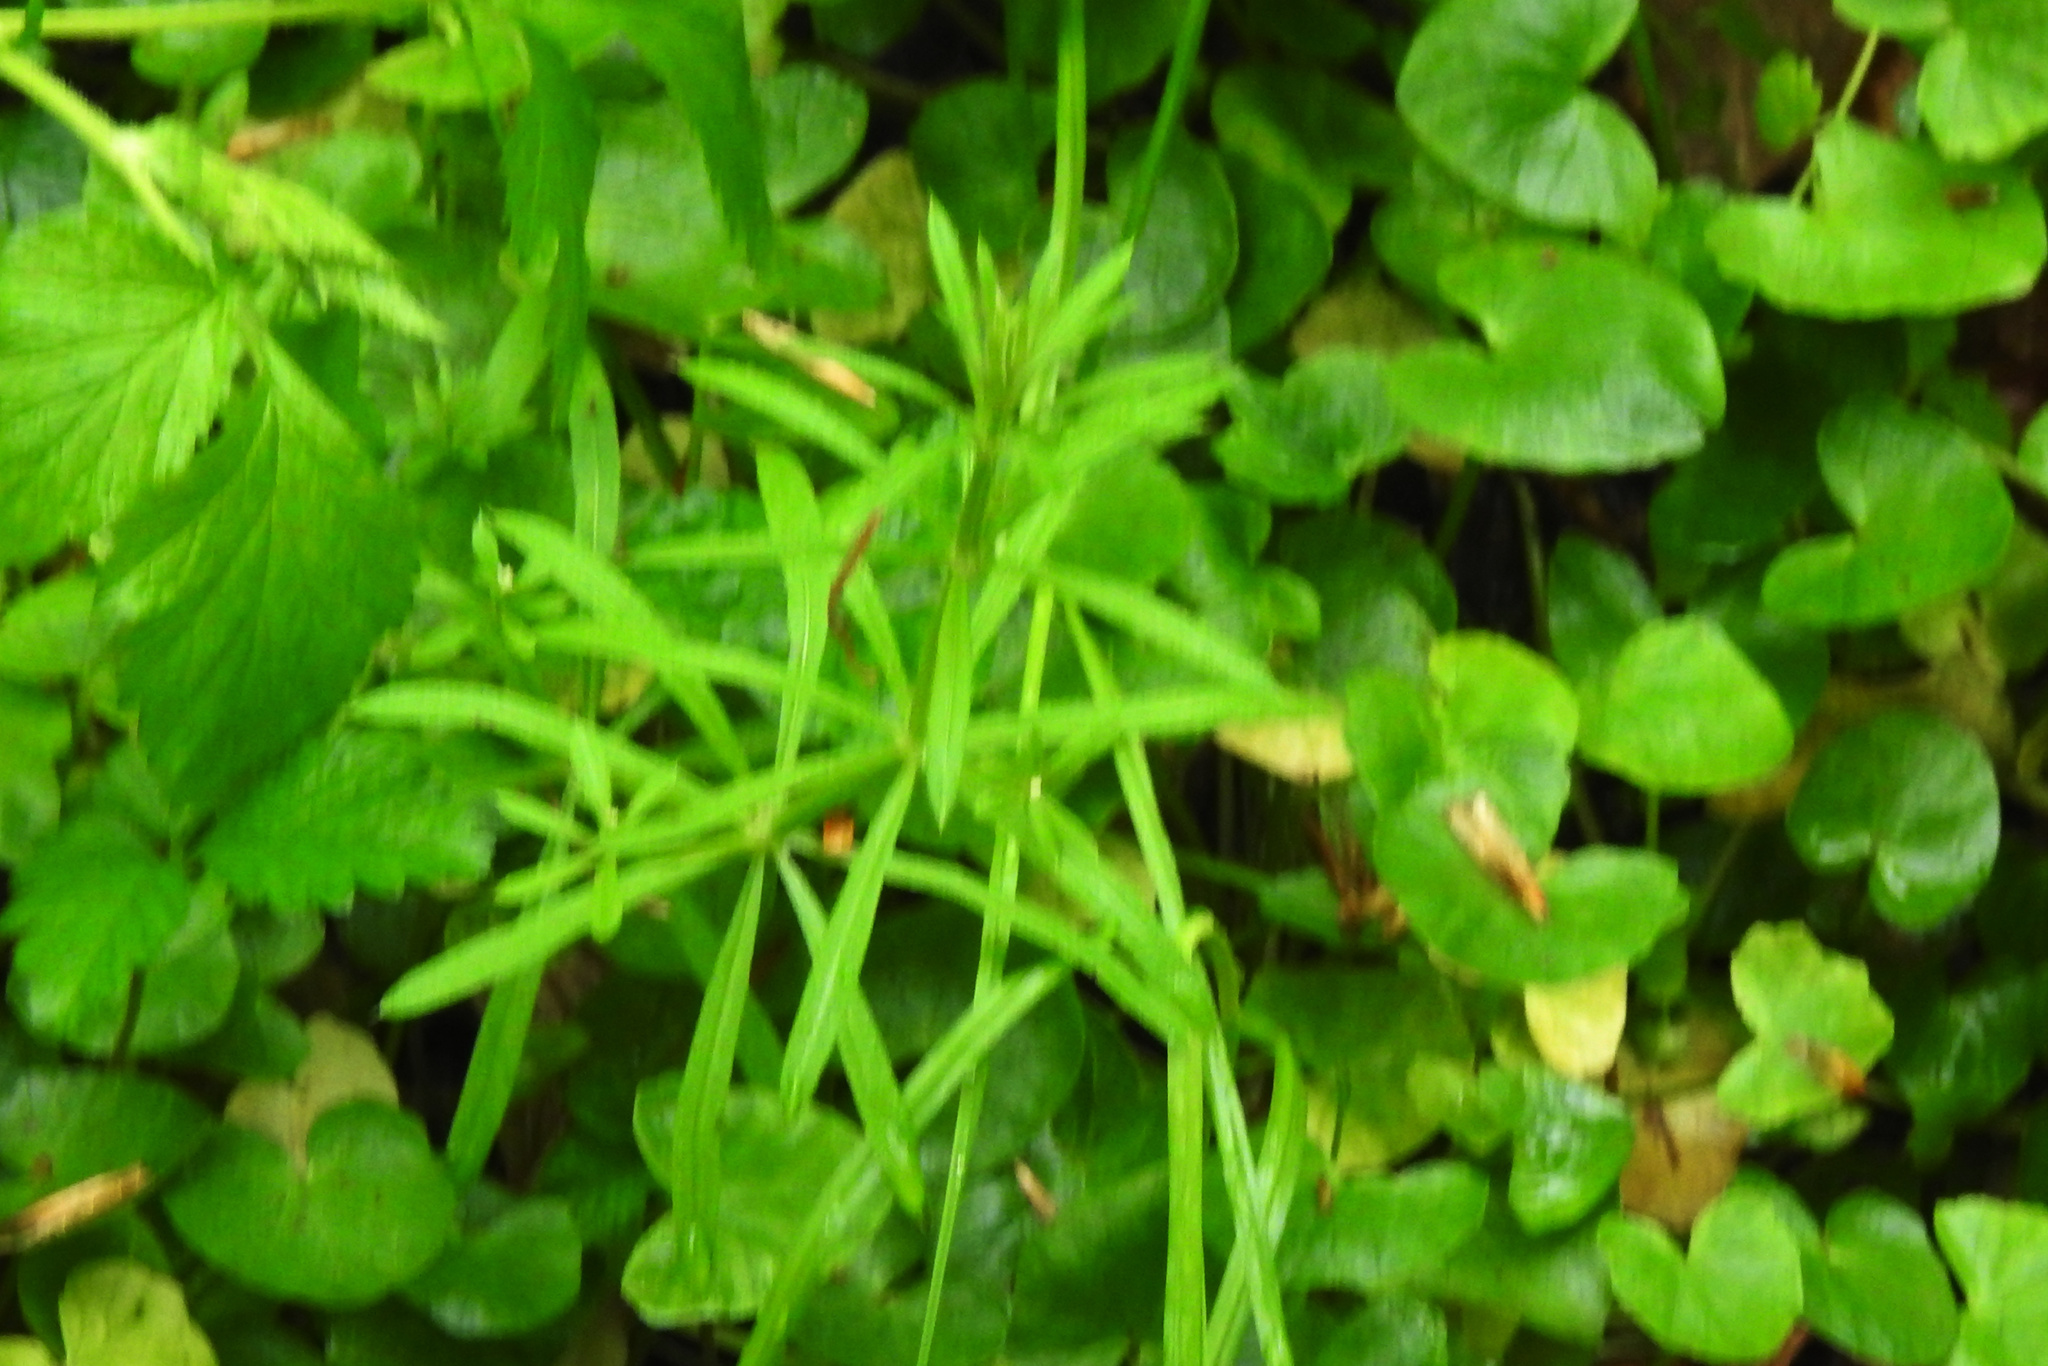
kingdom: Plantae
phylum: Tracheophyta
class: Magnoliopsida
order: Gentianales
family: Rubiaceae
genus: Galium
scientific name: Galium aparine
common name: Cleavers
